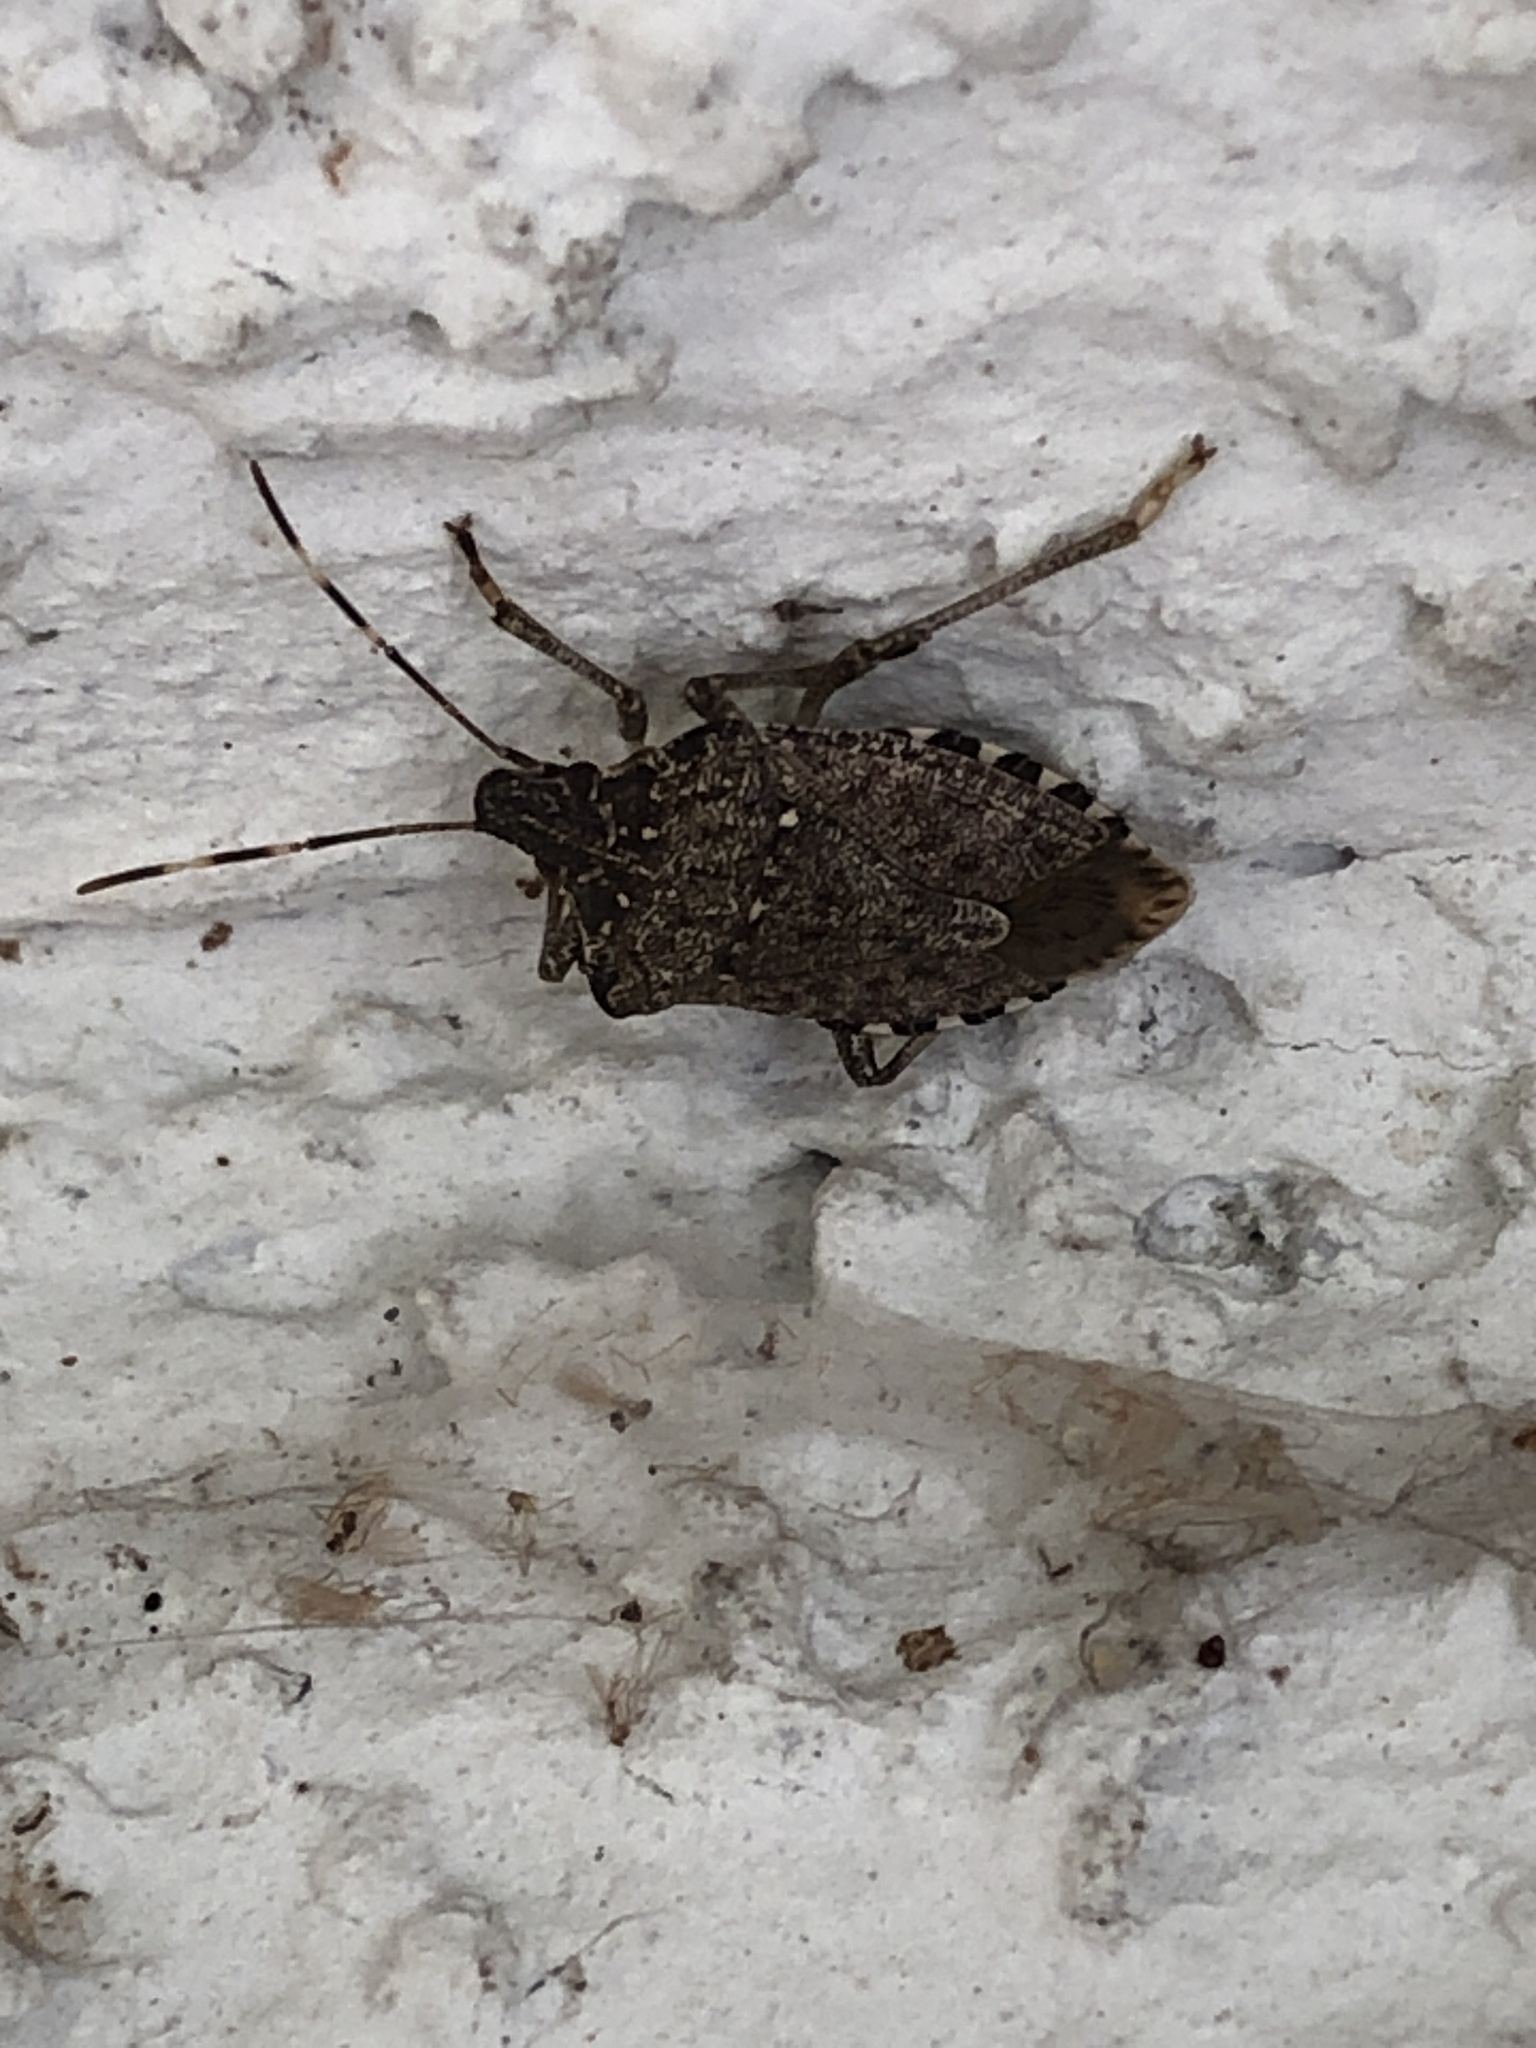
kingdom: Animalia
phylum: Arthropoda
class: Insecta
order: Hemiptera
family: Pentatomidae
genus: Halyomorpha
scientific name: Halyomorpha halys
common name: Brown marmorated stink bug
